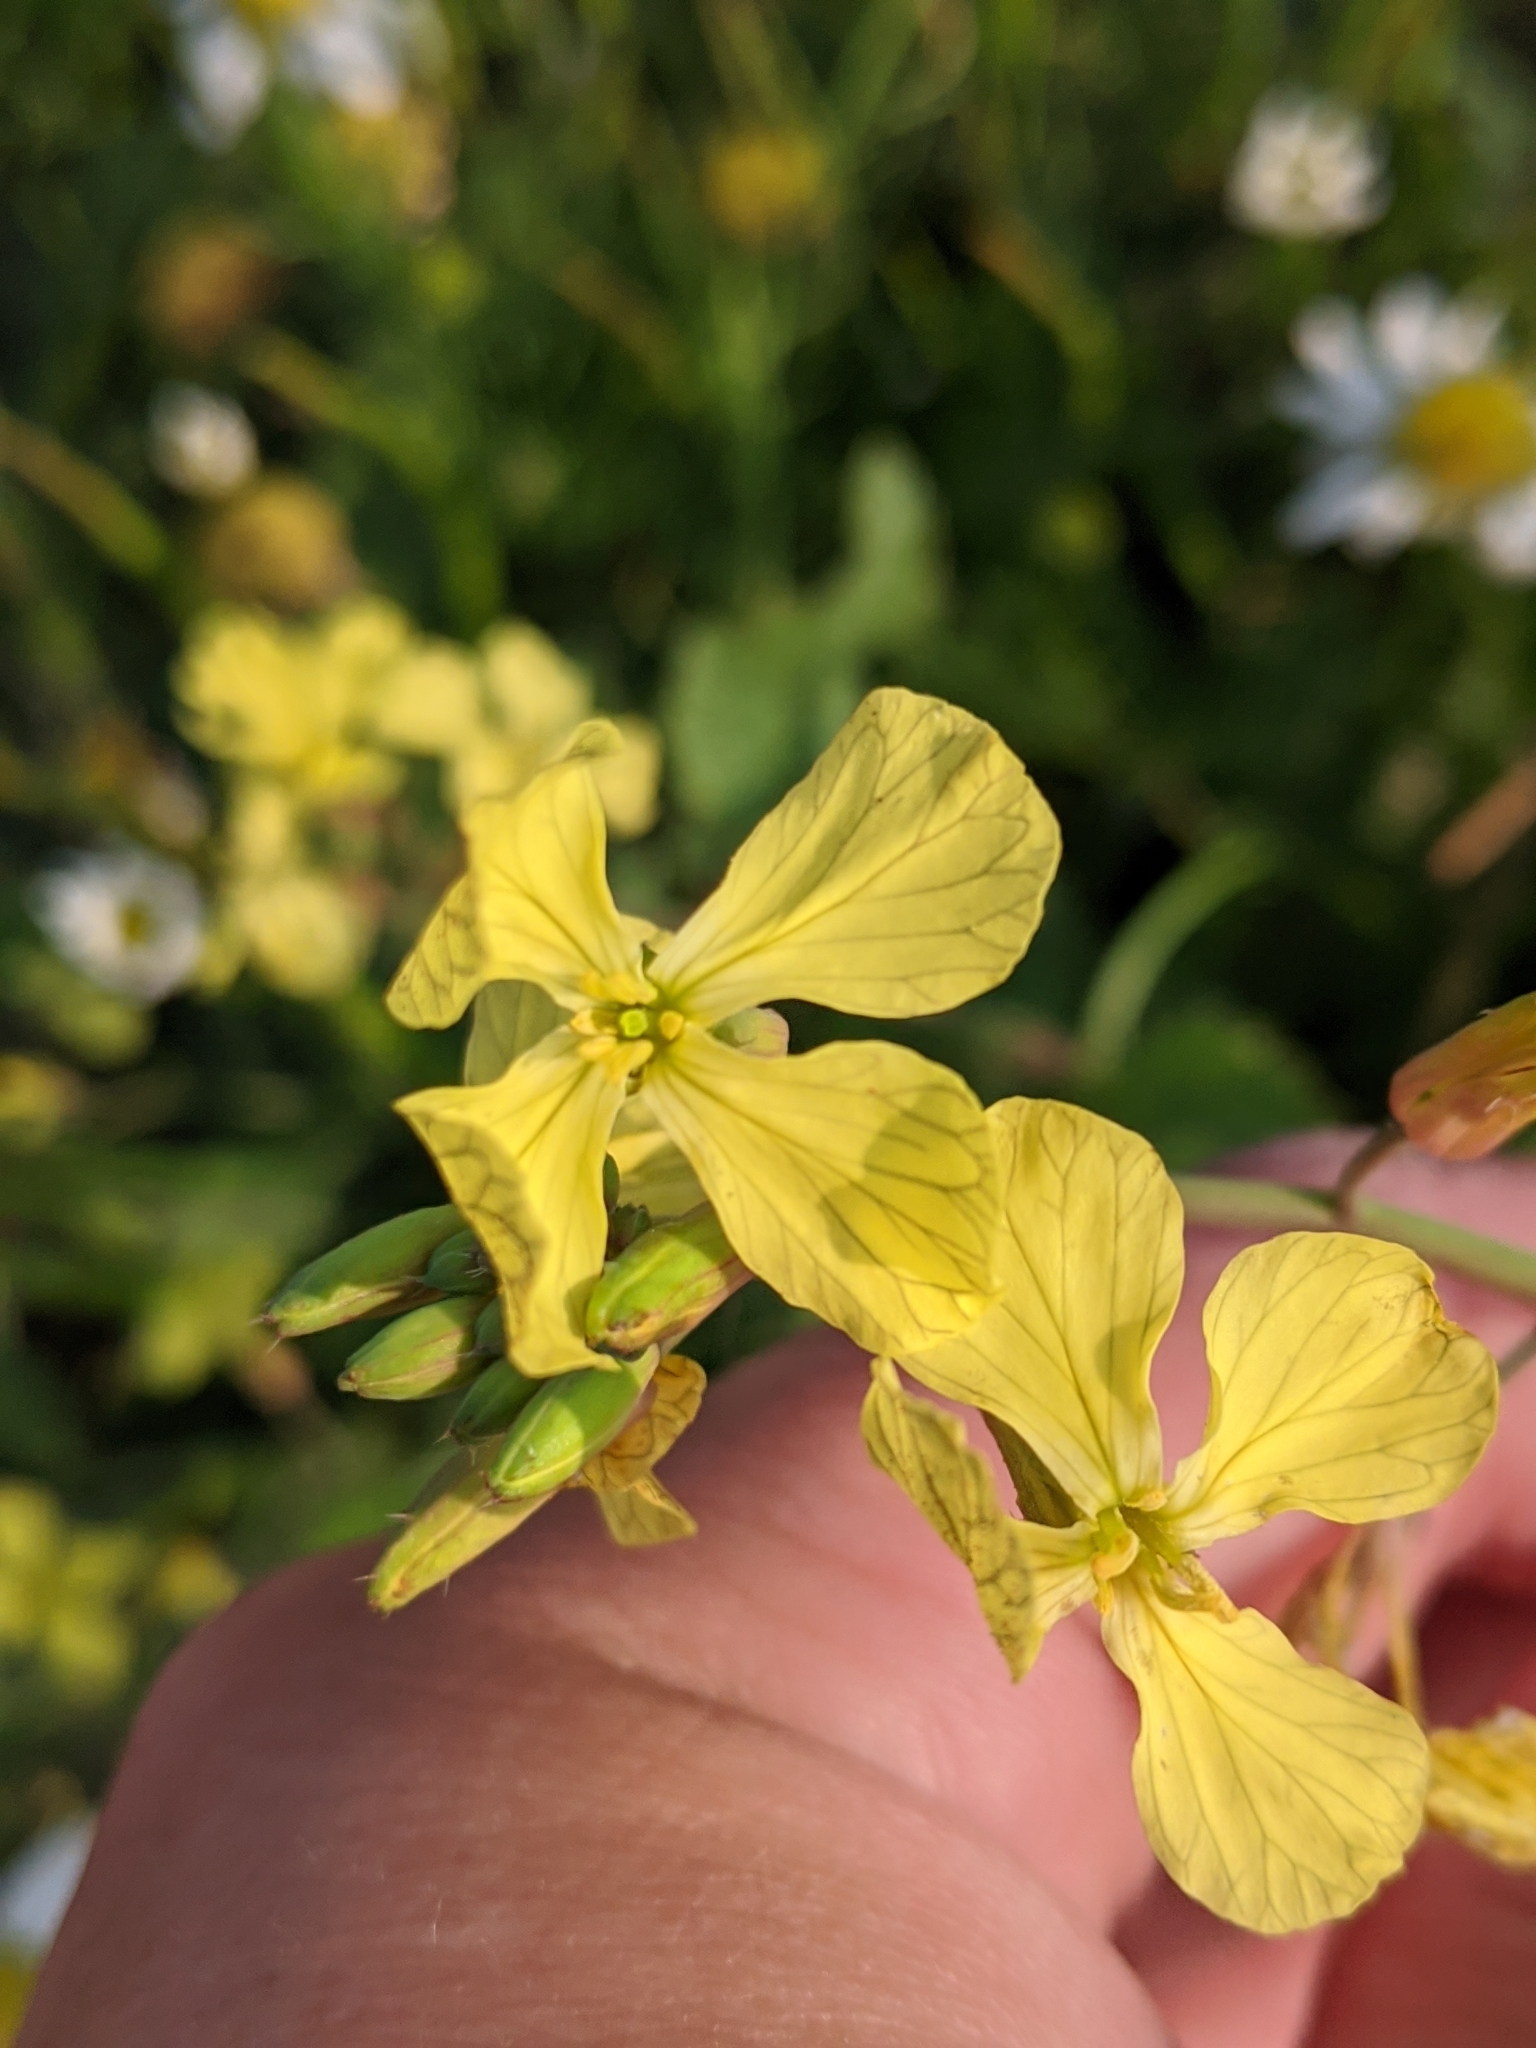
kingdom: Plantae
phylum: Tracheophyta
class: Magnoliopsida
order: Brassicales
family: Brassicaceae
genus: Raphanus
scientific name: Raphanus raphanistrum
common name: Wild radish
